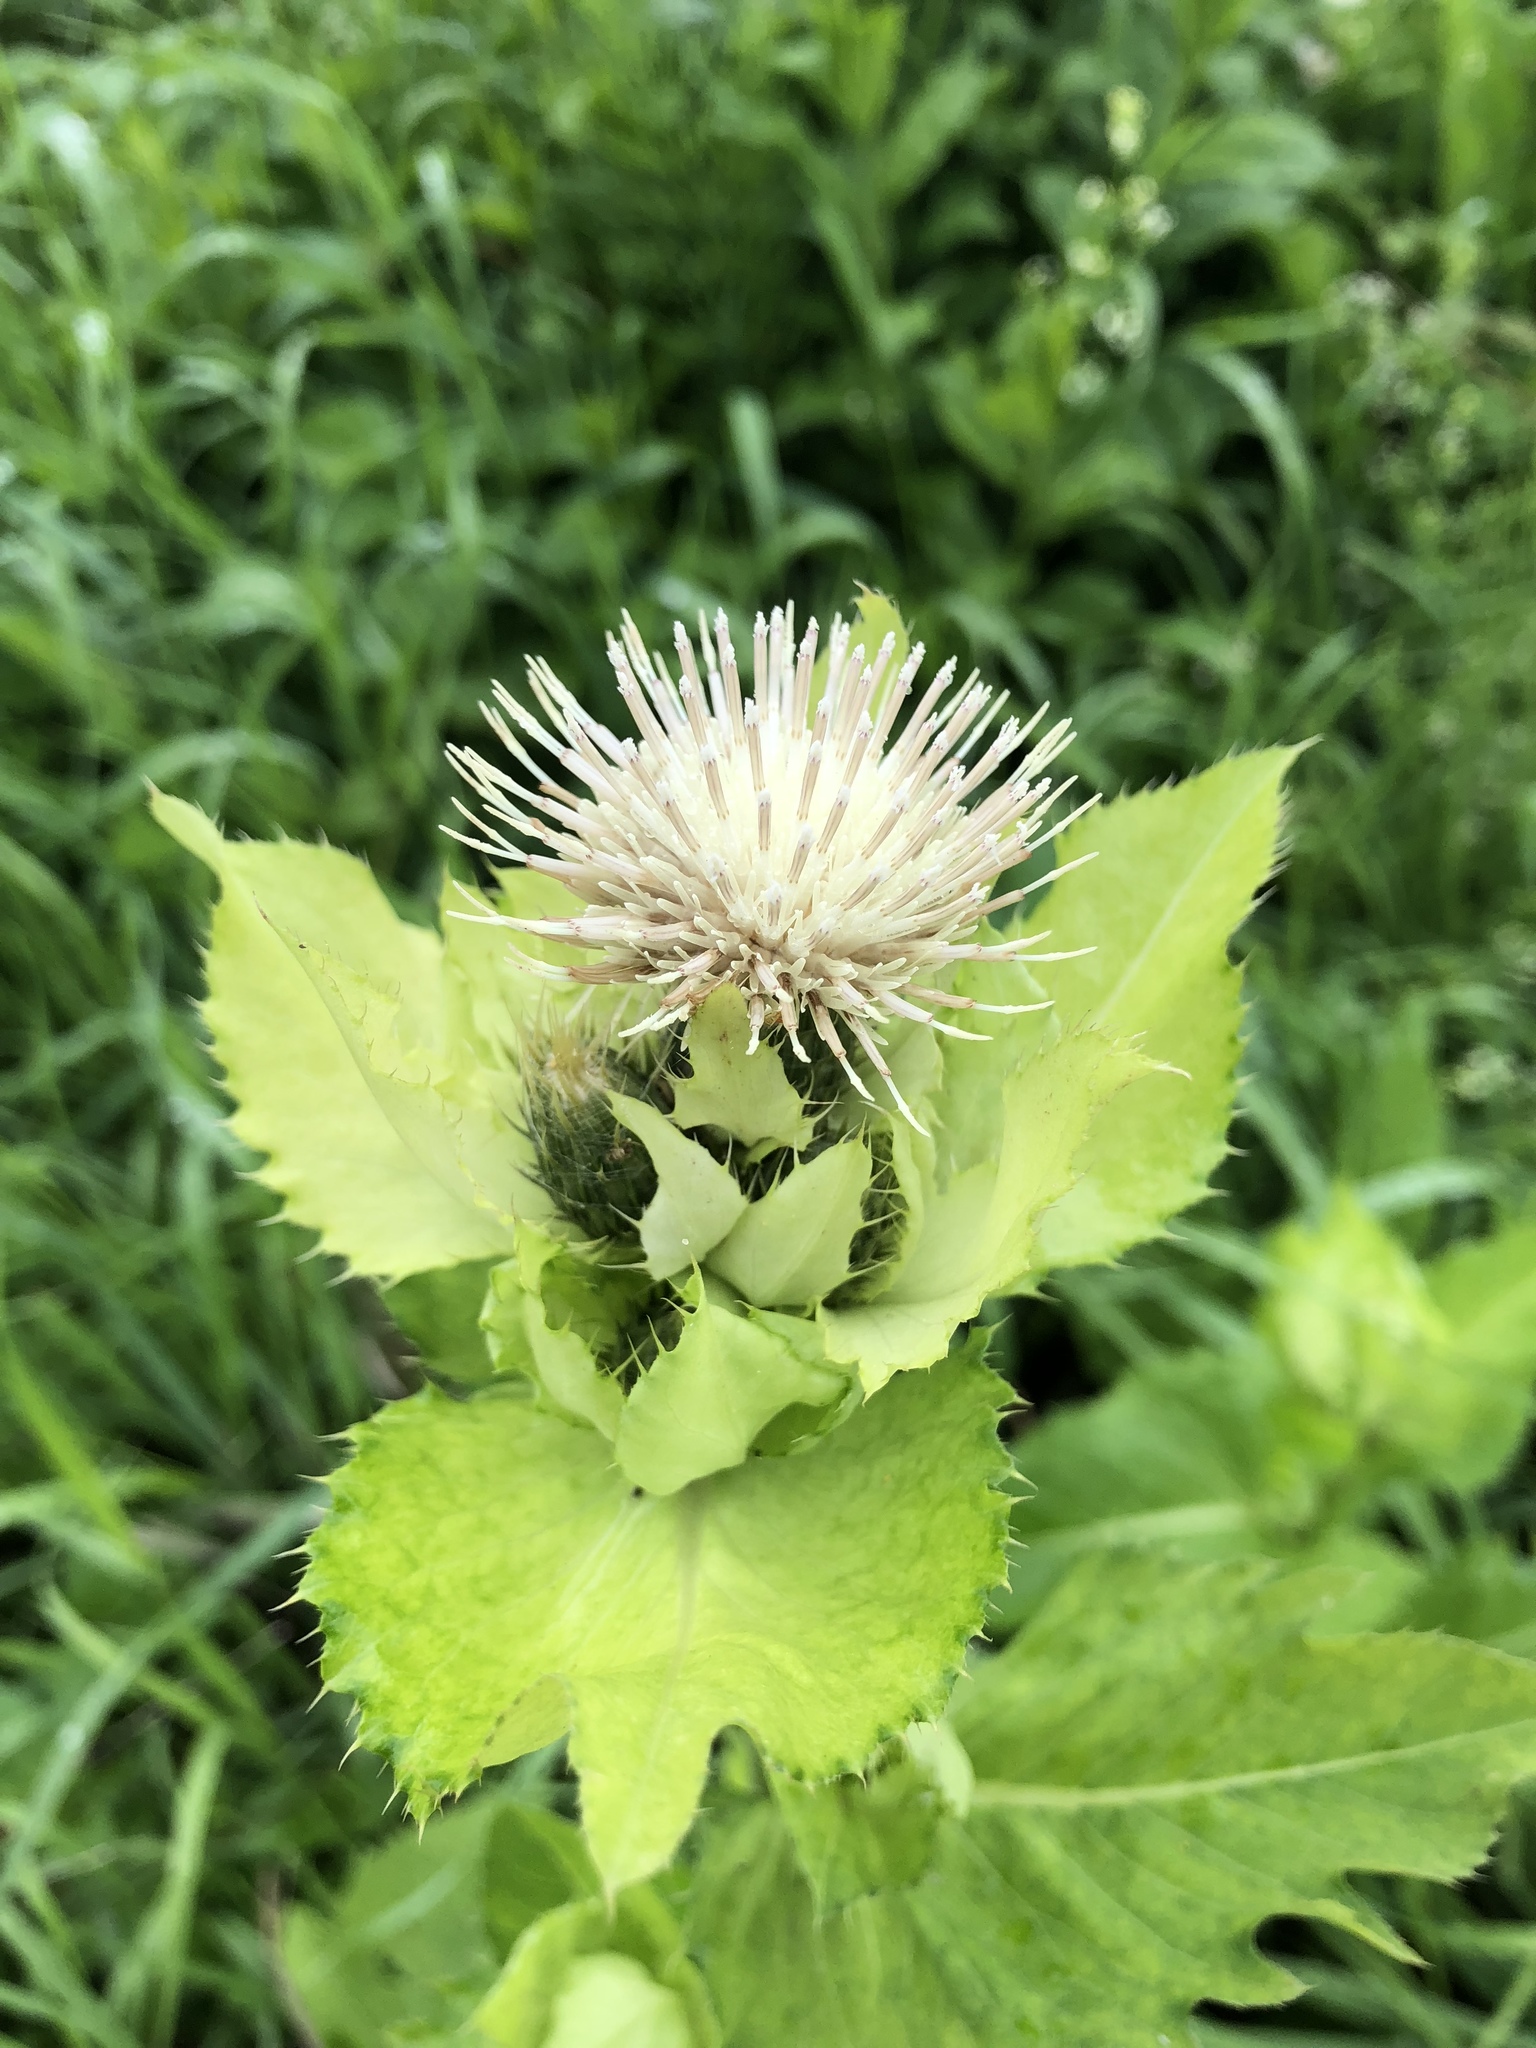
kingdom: Plantae
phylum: Tracheophyta
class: Magnoliopsida
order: Asterales
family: Asteraceae
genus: Cirsium
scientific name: Cirsium oleraceum
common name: Cabbage thistle
